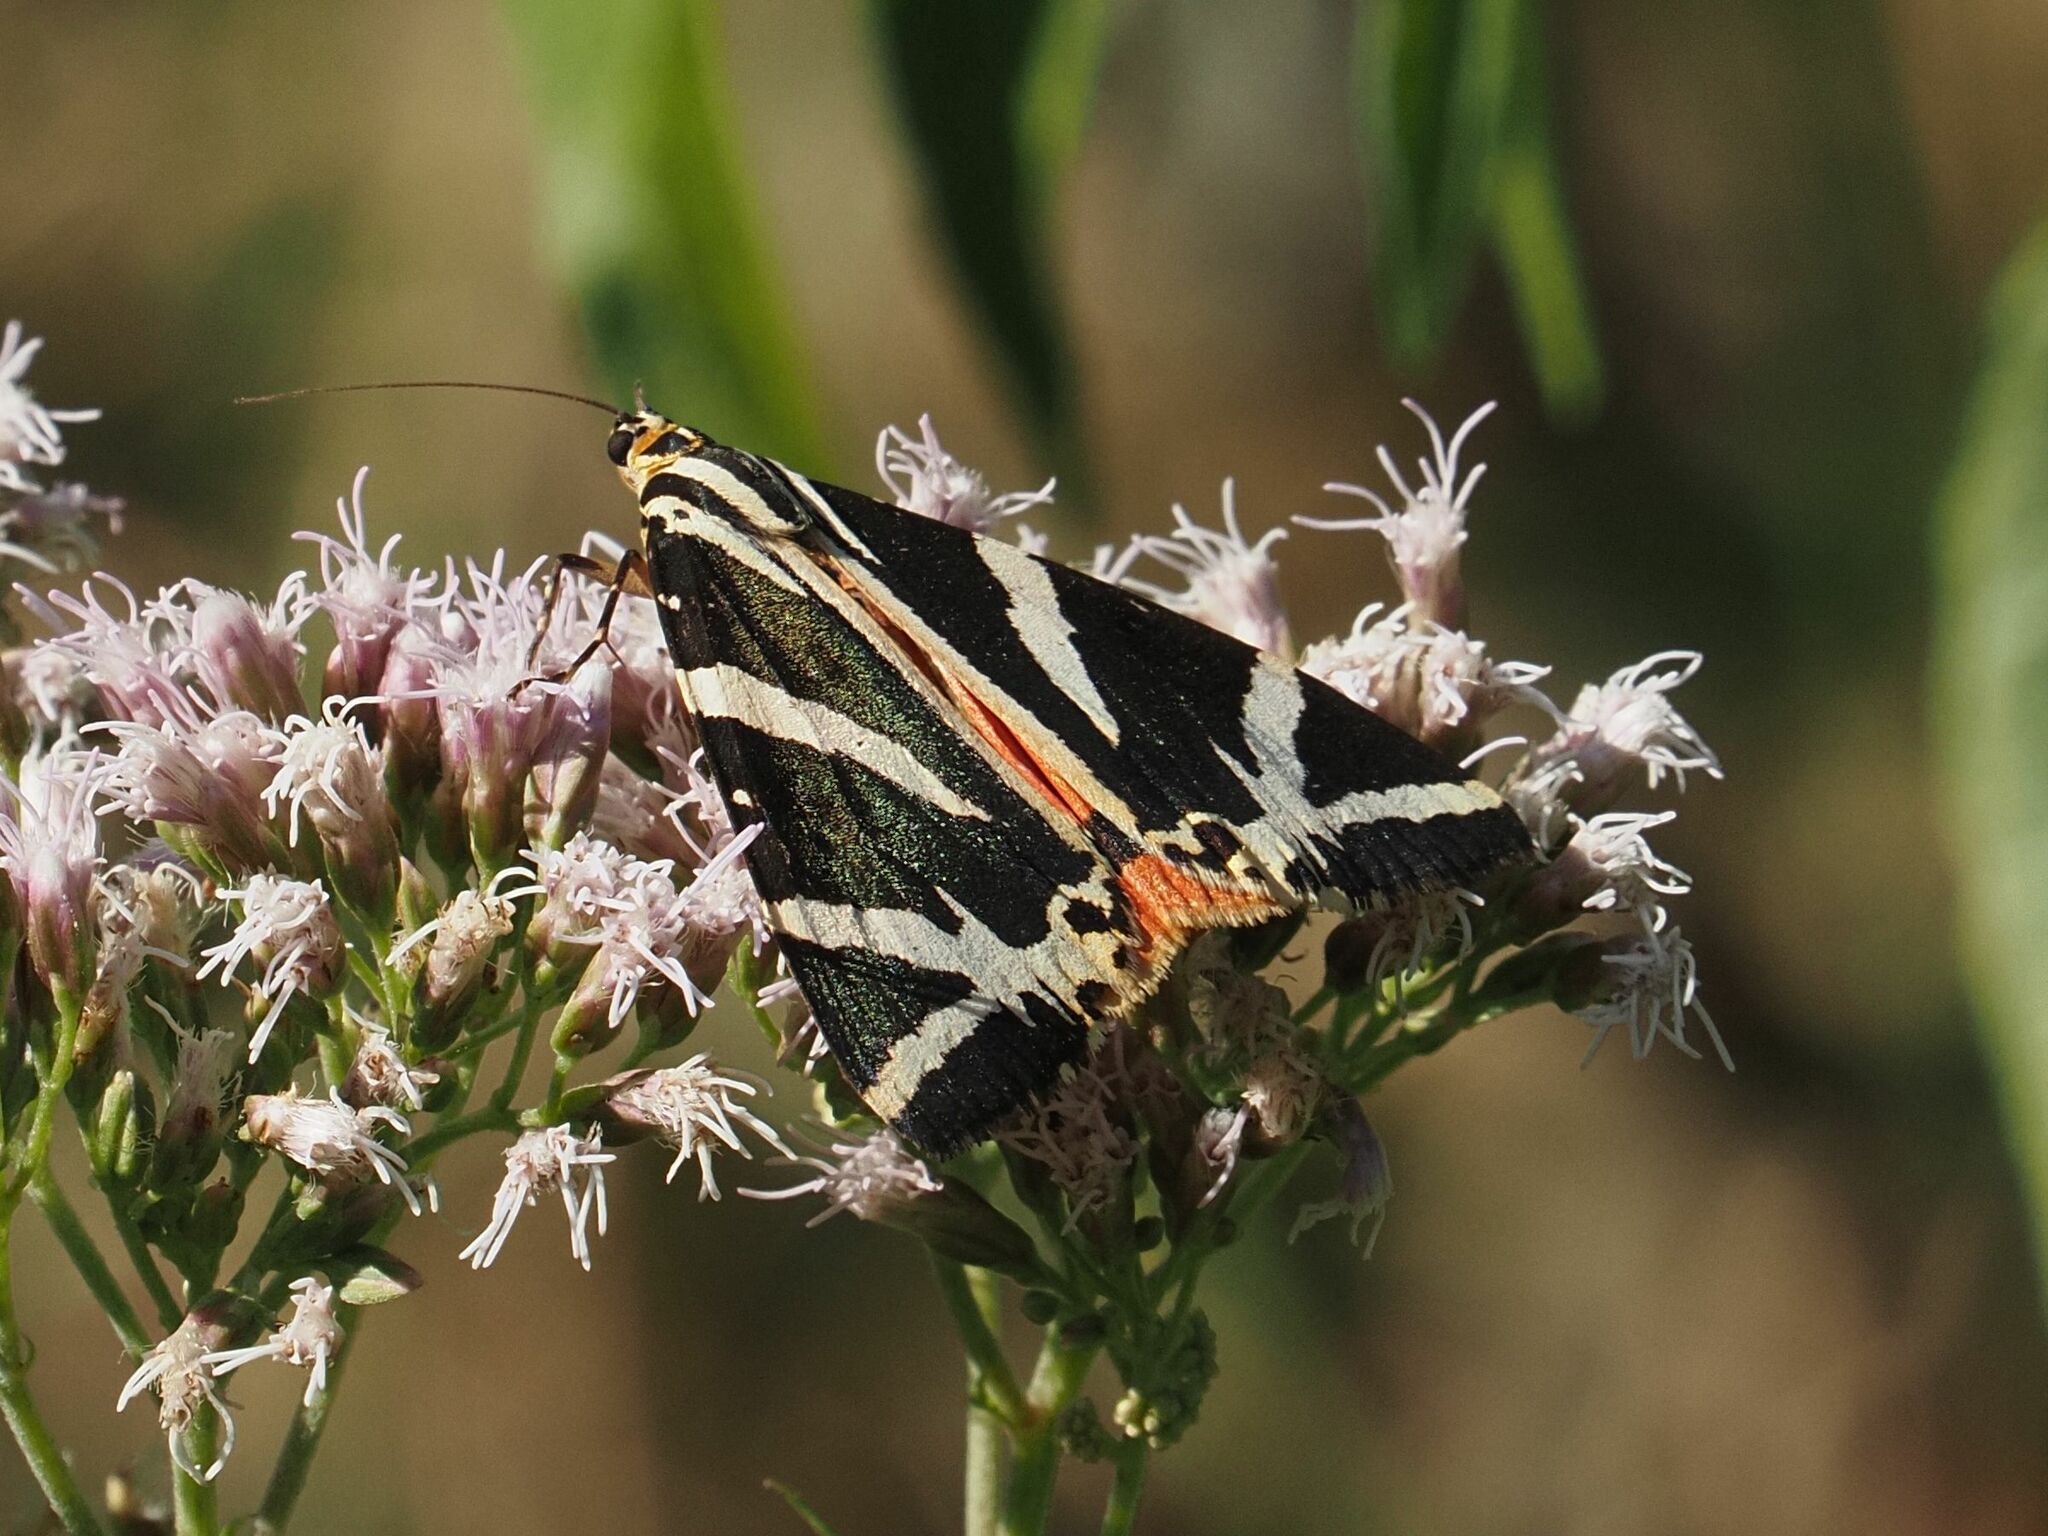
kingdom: Animalia
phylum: Arthropoda
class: Insecta
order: Lepidoptera
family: Erebidae
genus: Euplagia
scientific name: Euplagia quadripunctaria
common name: Jersey tiger
